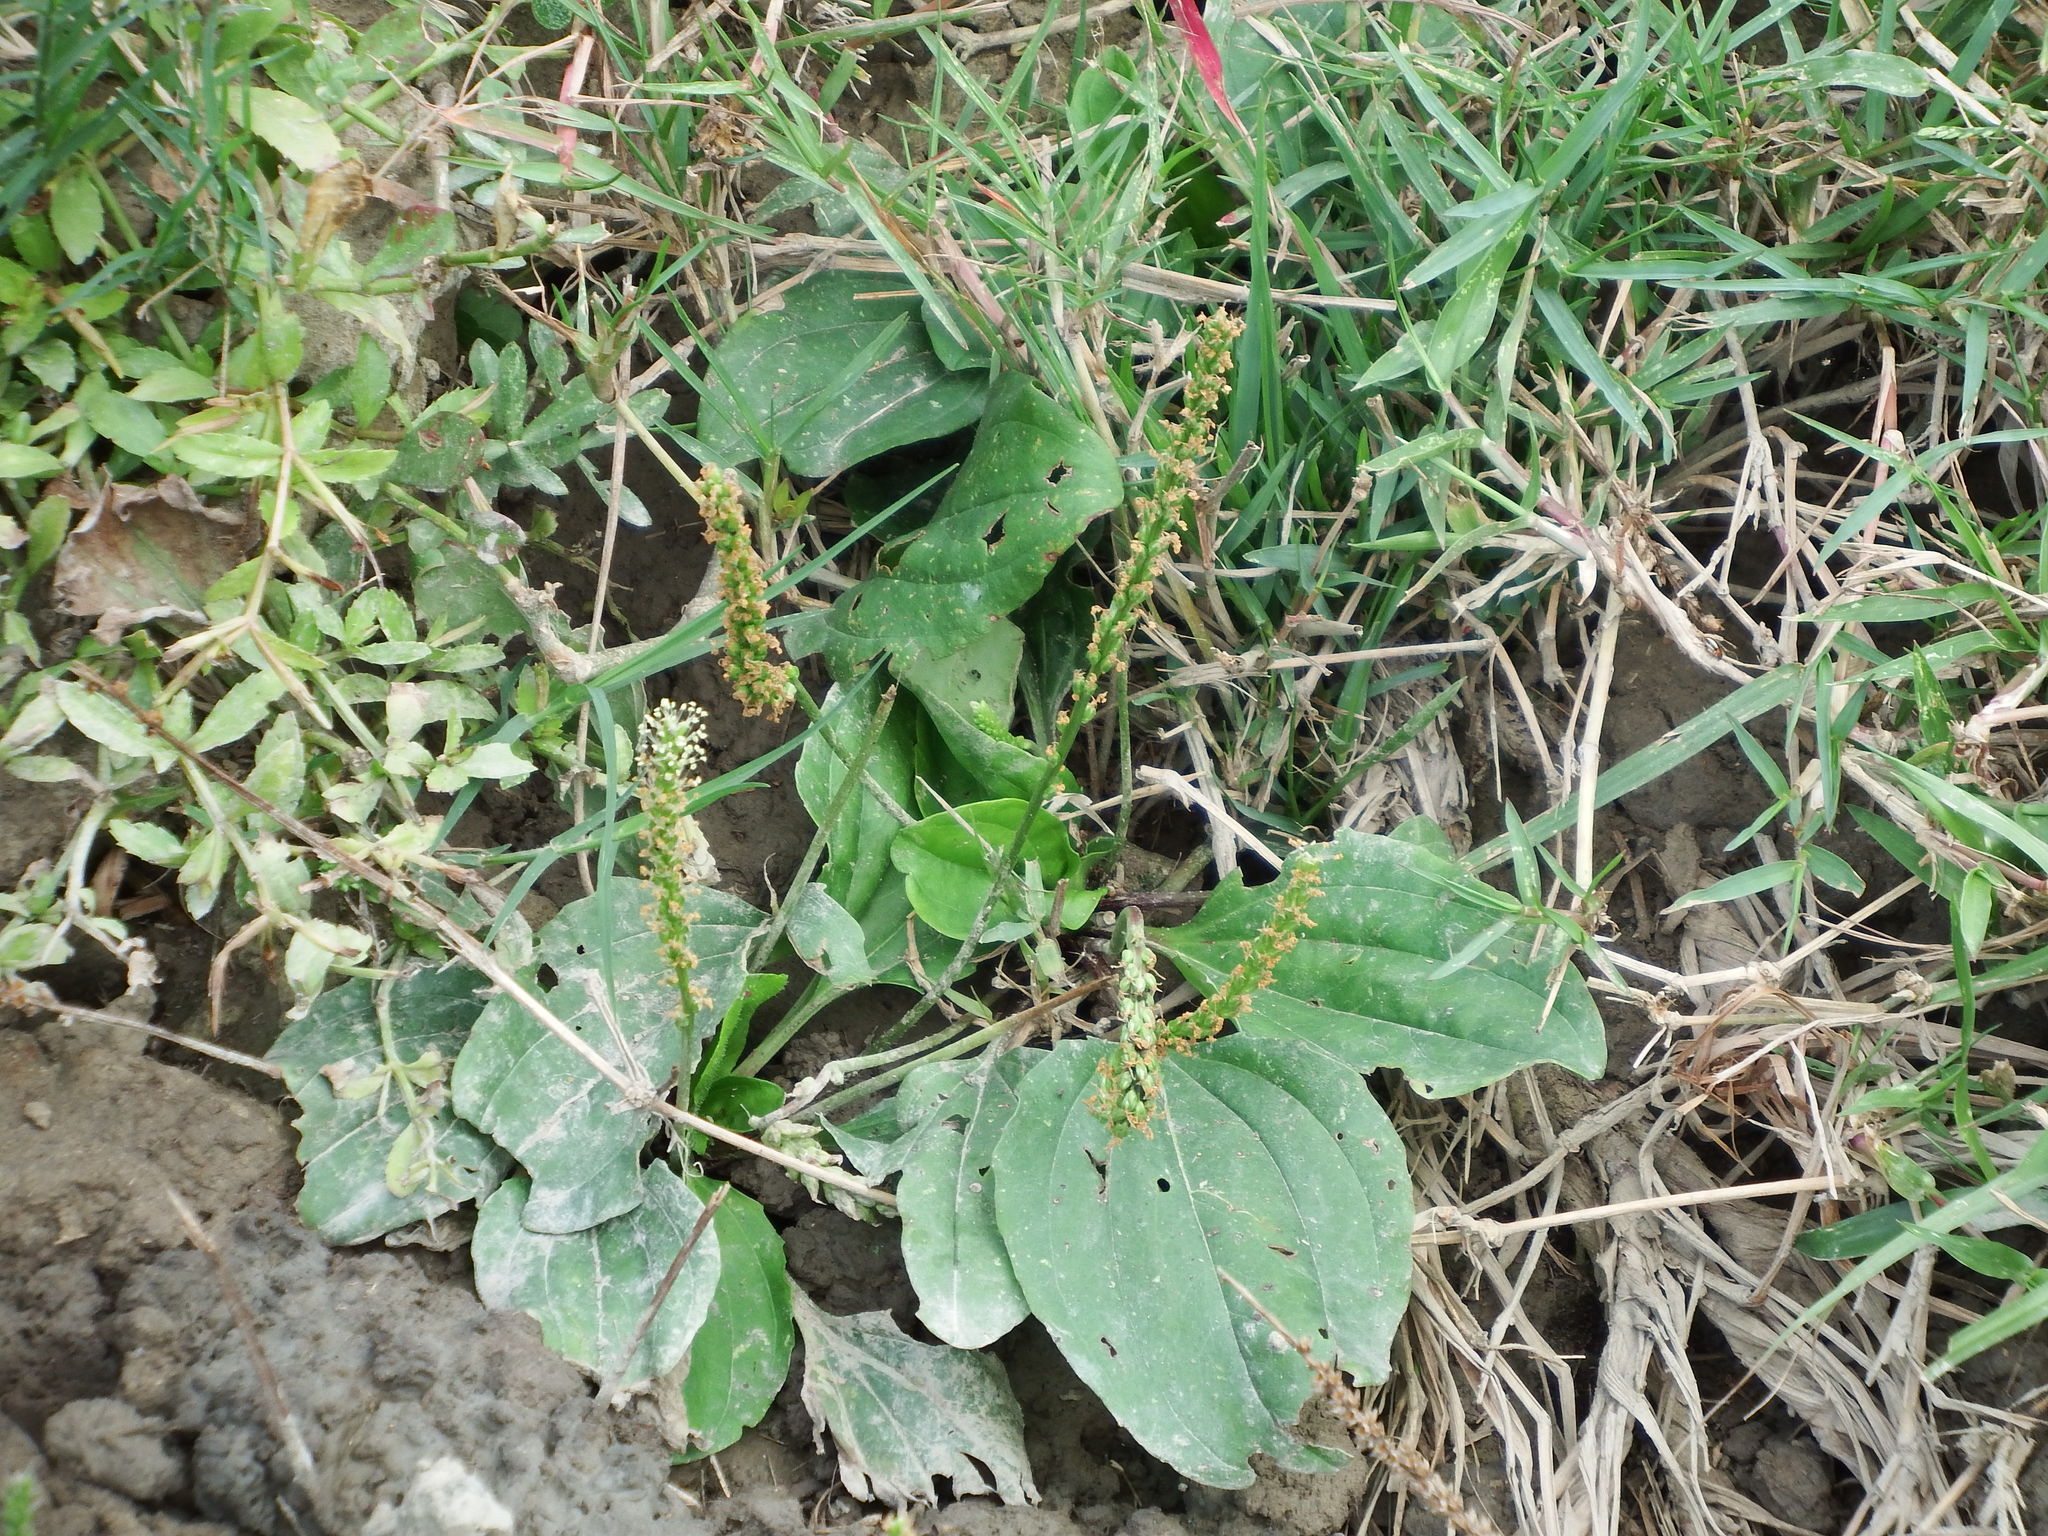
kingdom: Plantae
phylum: Tracheophyta
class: Magnoliopsida
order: Lamiales
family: Plantaginaceae
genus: Plantago
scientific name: Plantago asiatica
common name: Psyllium
